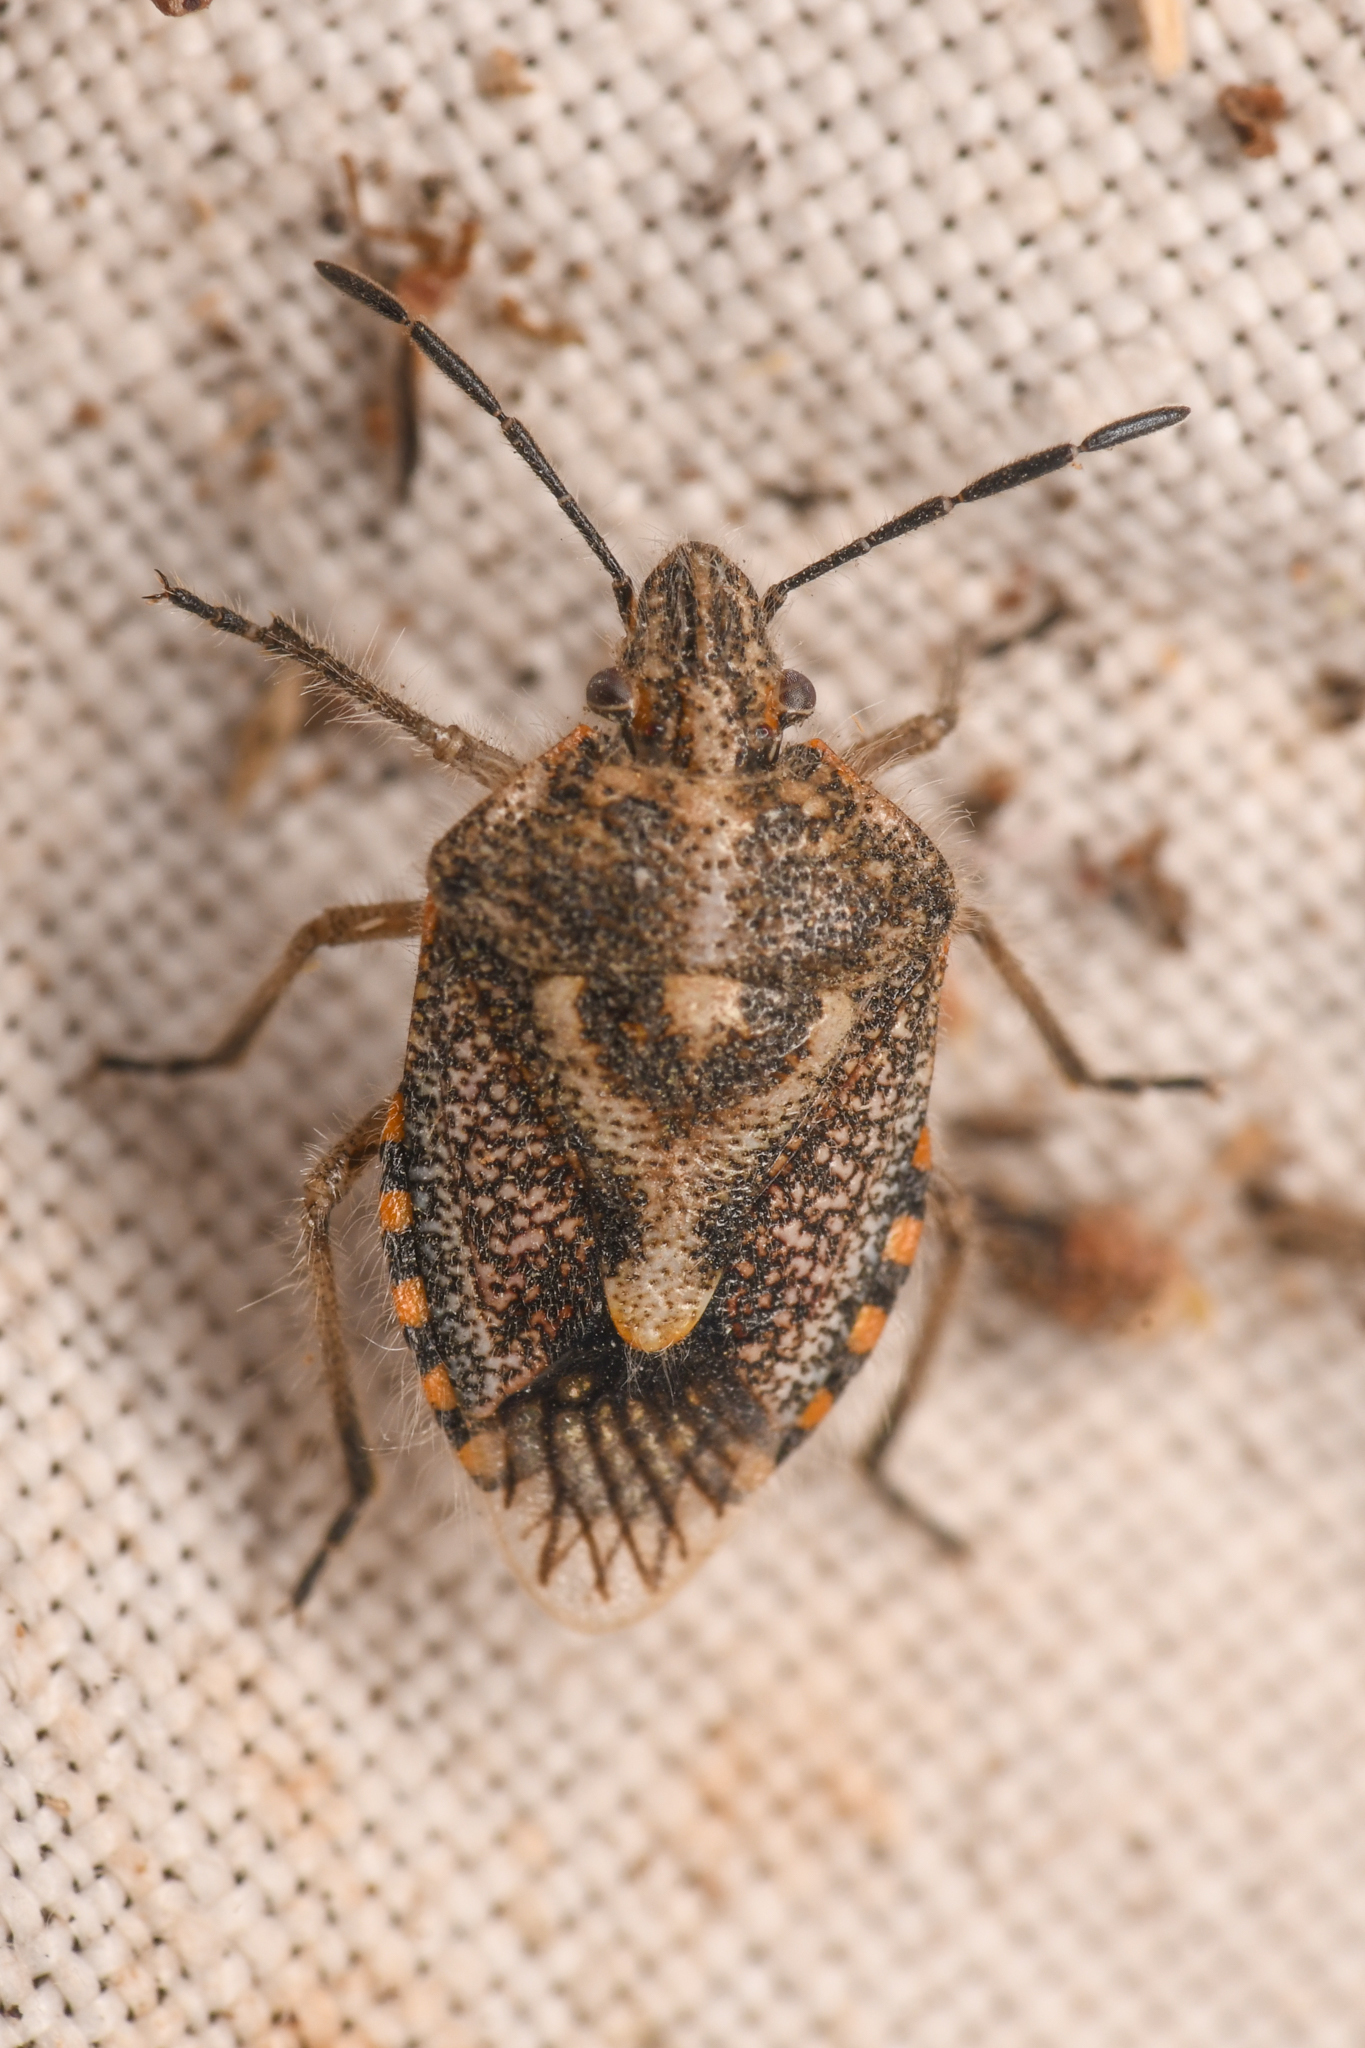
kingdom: Animalia
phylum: Arthropoda
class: Insecta
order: Hemiptera
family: Pentatomidae
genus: Agonoscelis
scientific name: Agonoscelis puberula
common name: African cluster bug
